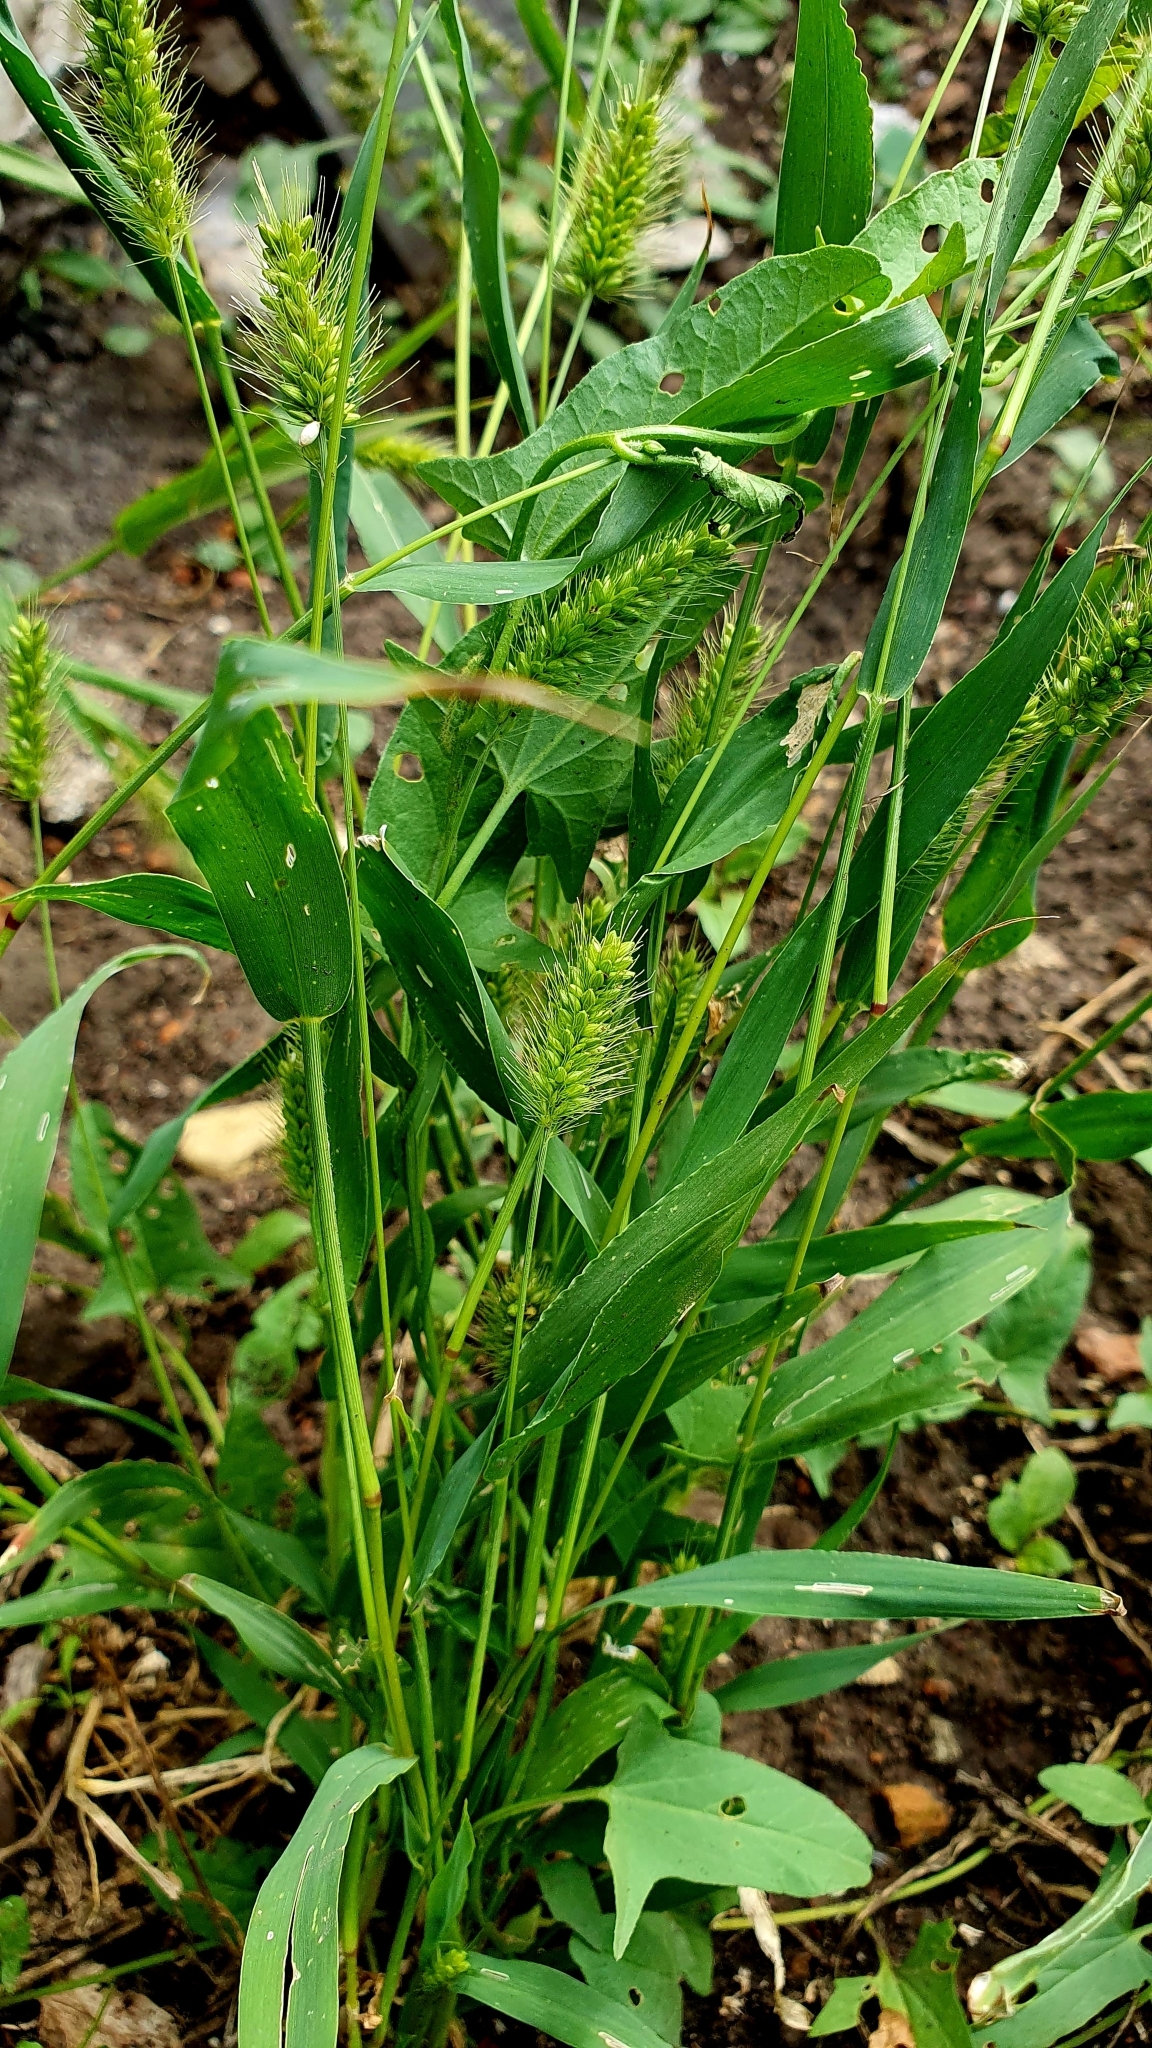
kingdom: Plantae
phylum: Tracheophyta
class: Liliopsida
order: Poales
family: Poaceae
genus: Setaria
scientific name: Setaria viridis
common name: Green bristlegrass
